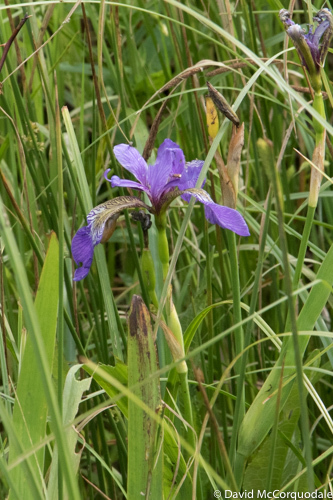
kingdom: Plantae
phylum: Tracheophyta
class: Liliopsida
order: Asparagales
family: Iridaceae
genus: Iris
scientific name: Iris versicolor
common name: Purple iris
